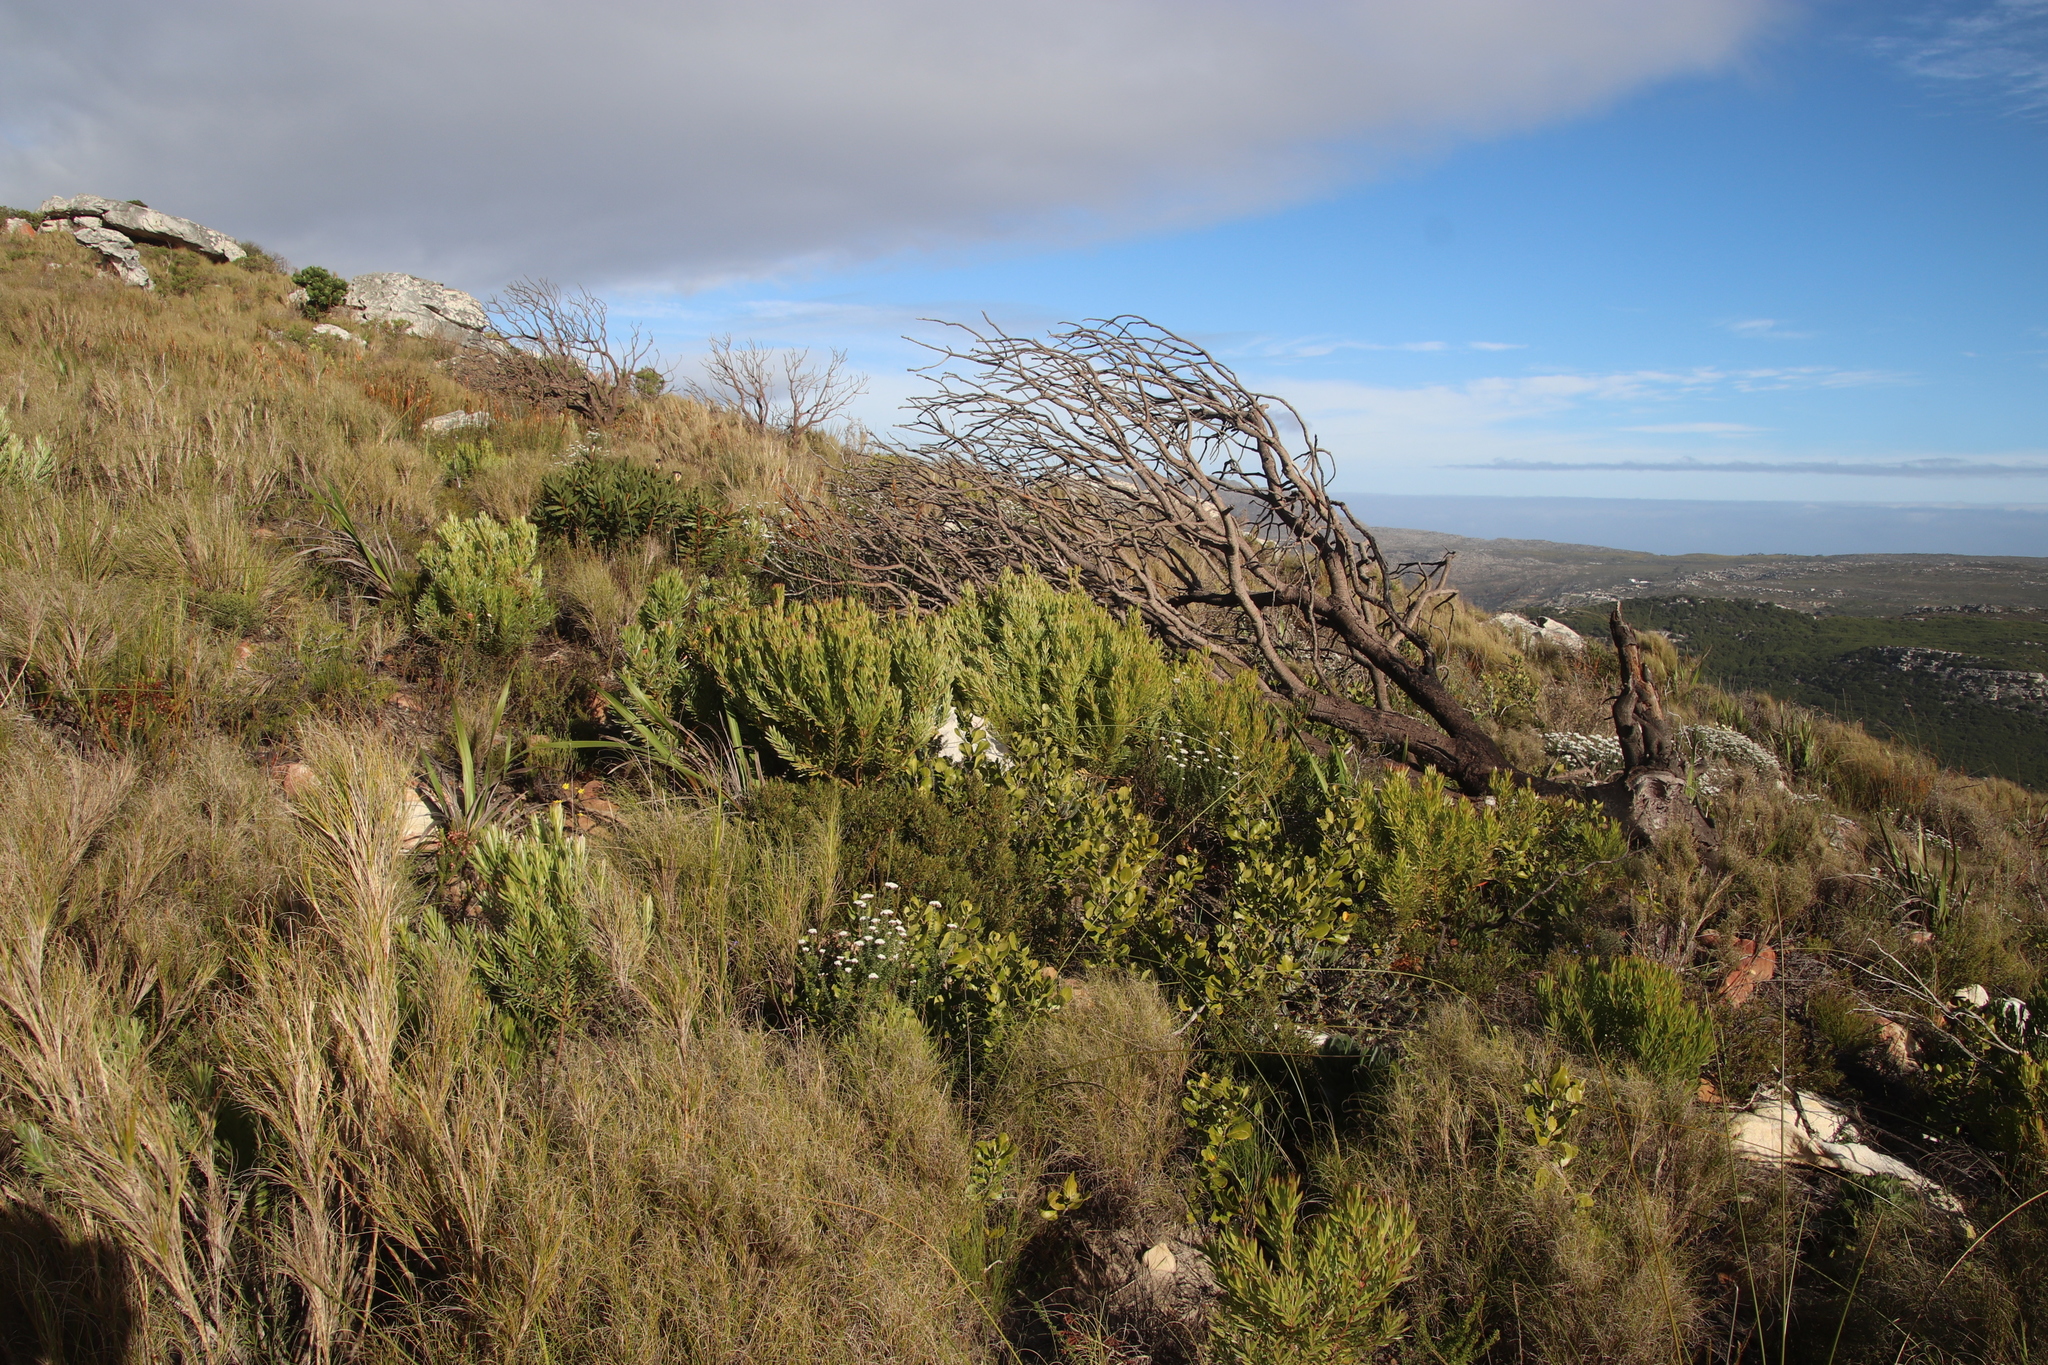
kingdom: Plantae
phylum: Tracheophyta
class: Magnoliopsida
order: Proteales
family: Proteaceae
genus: Leucadendron
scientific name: Leucadendron xanthoconus
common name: Sickle-leaf conebush
